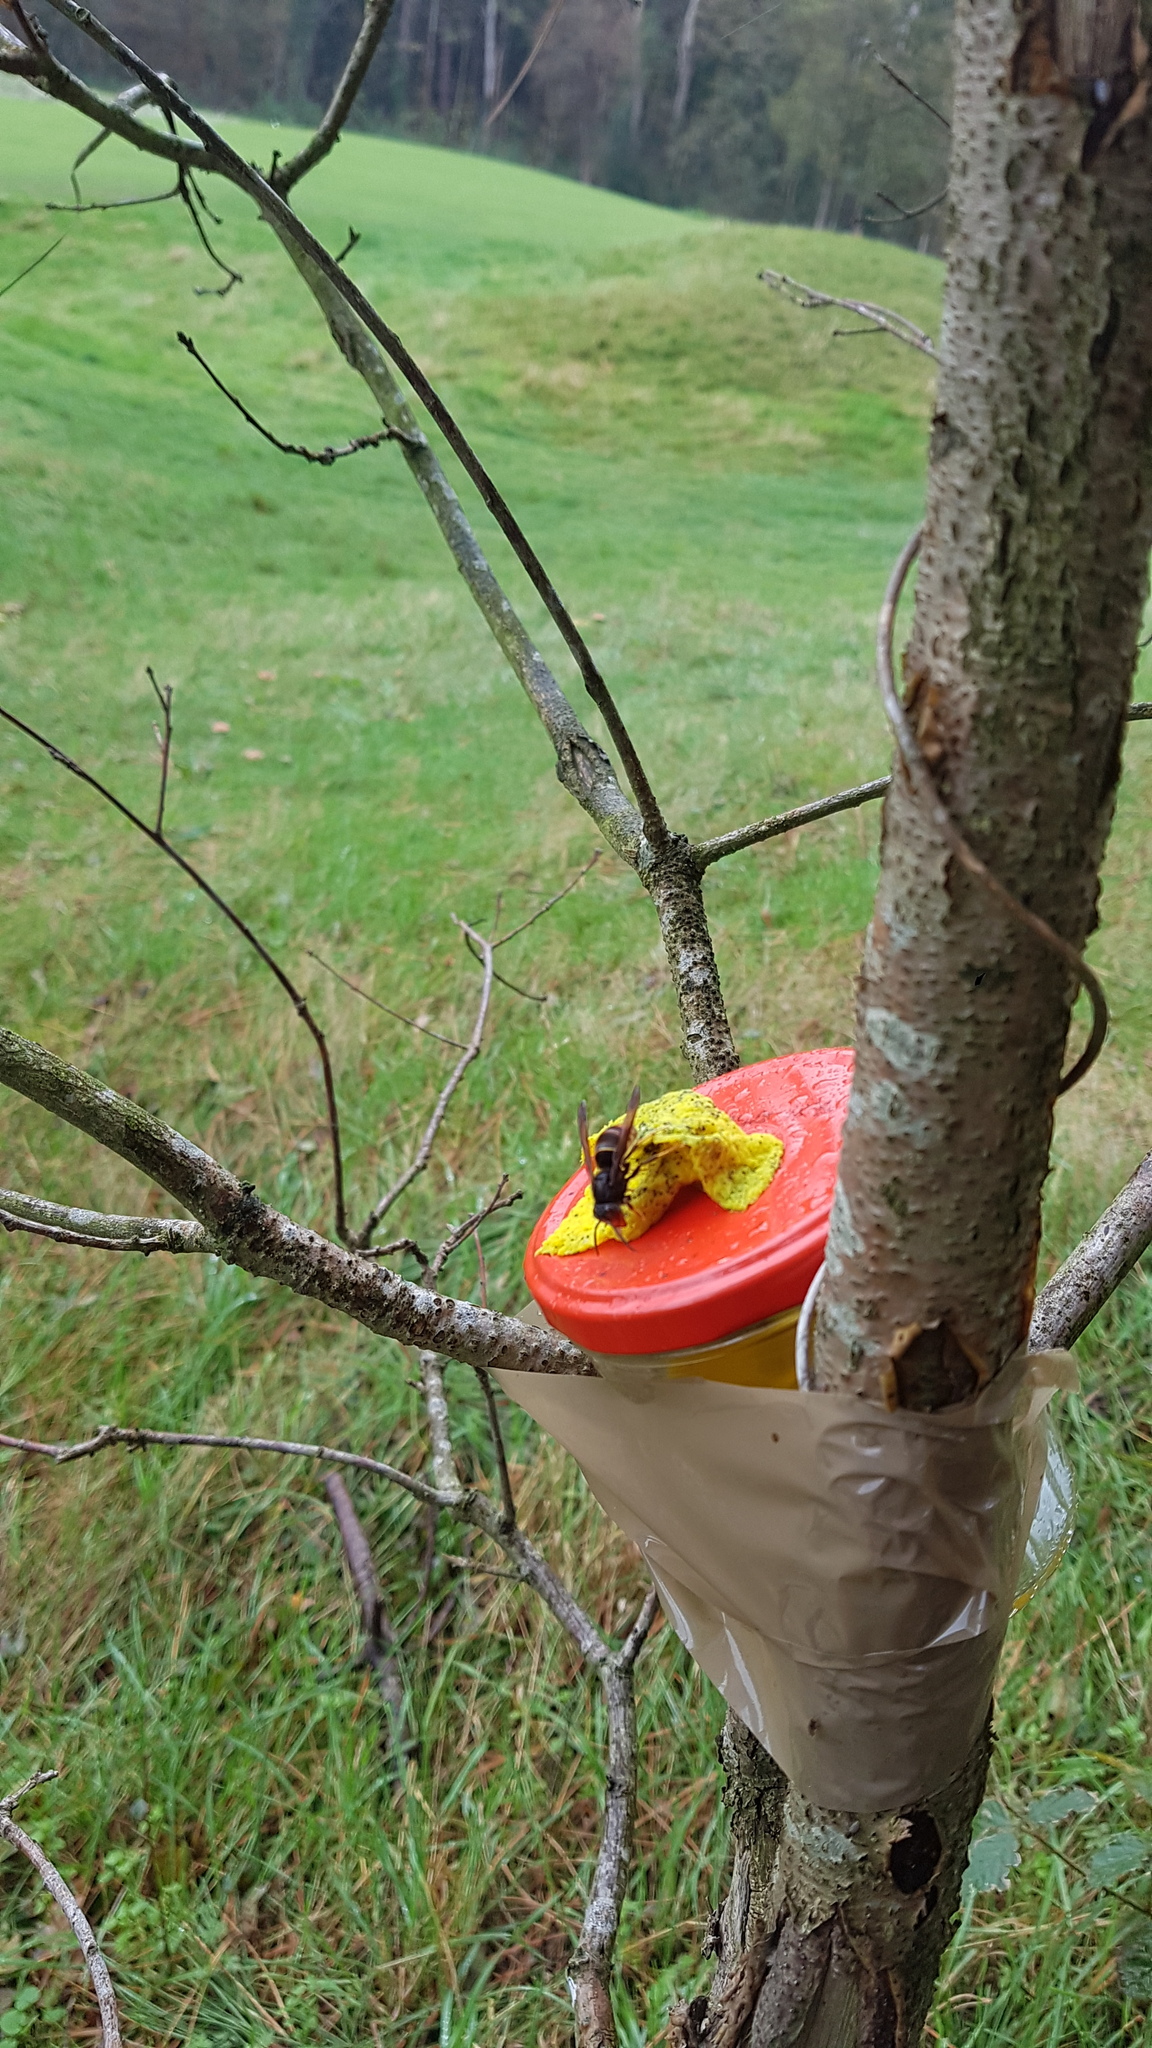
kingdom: Animalia
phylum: Arthropoda
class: Insecta
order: Hymenoptera
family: Vespidae
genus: Vespa
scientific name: Vespa velutina
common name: Asian hornet
